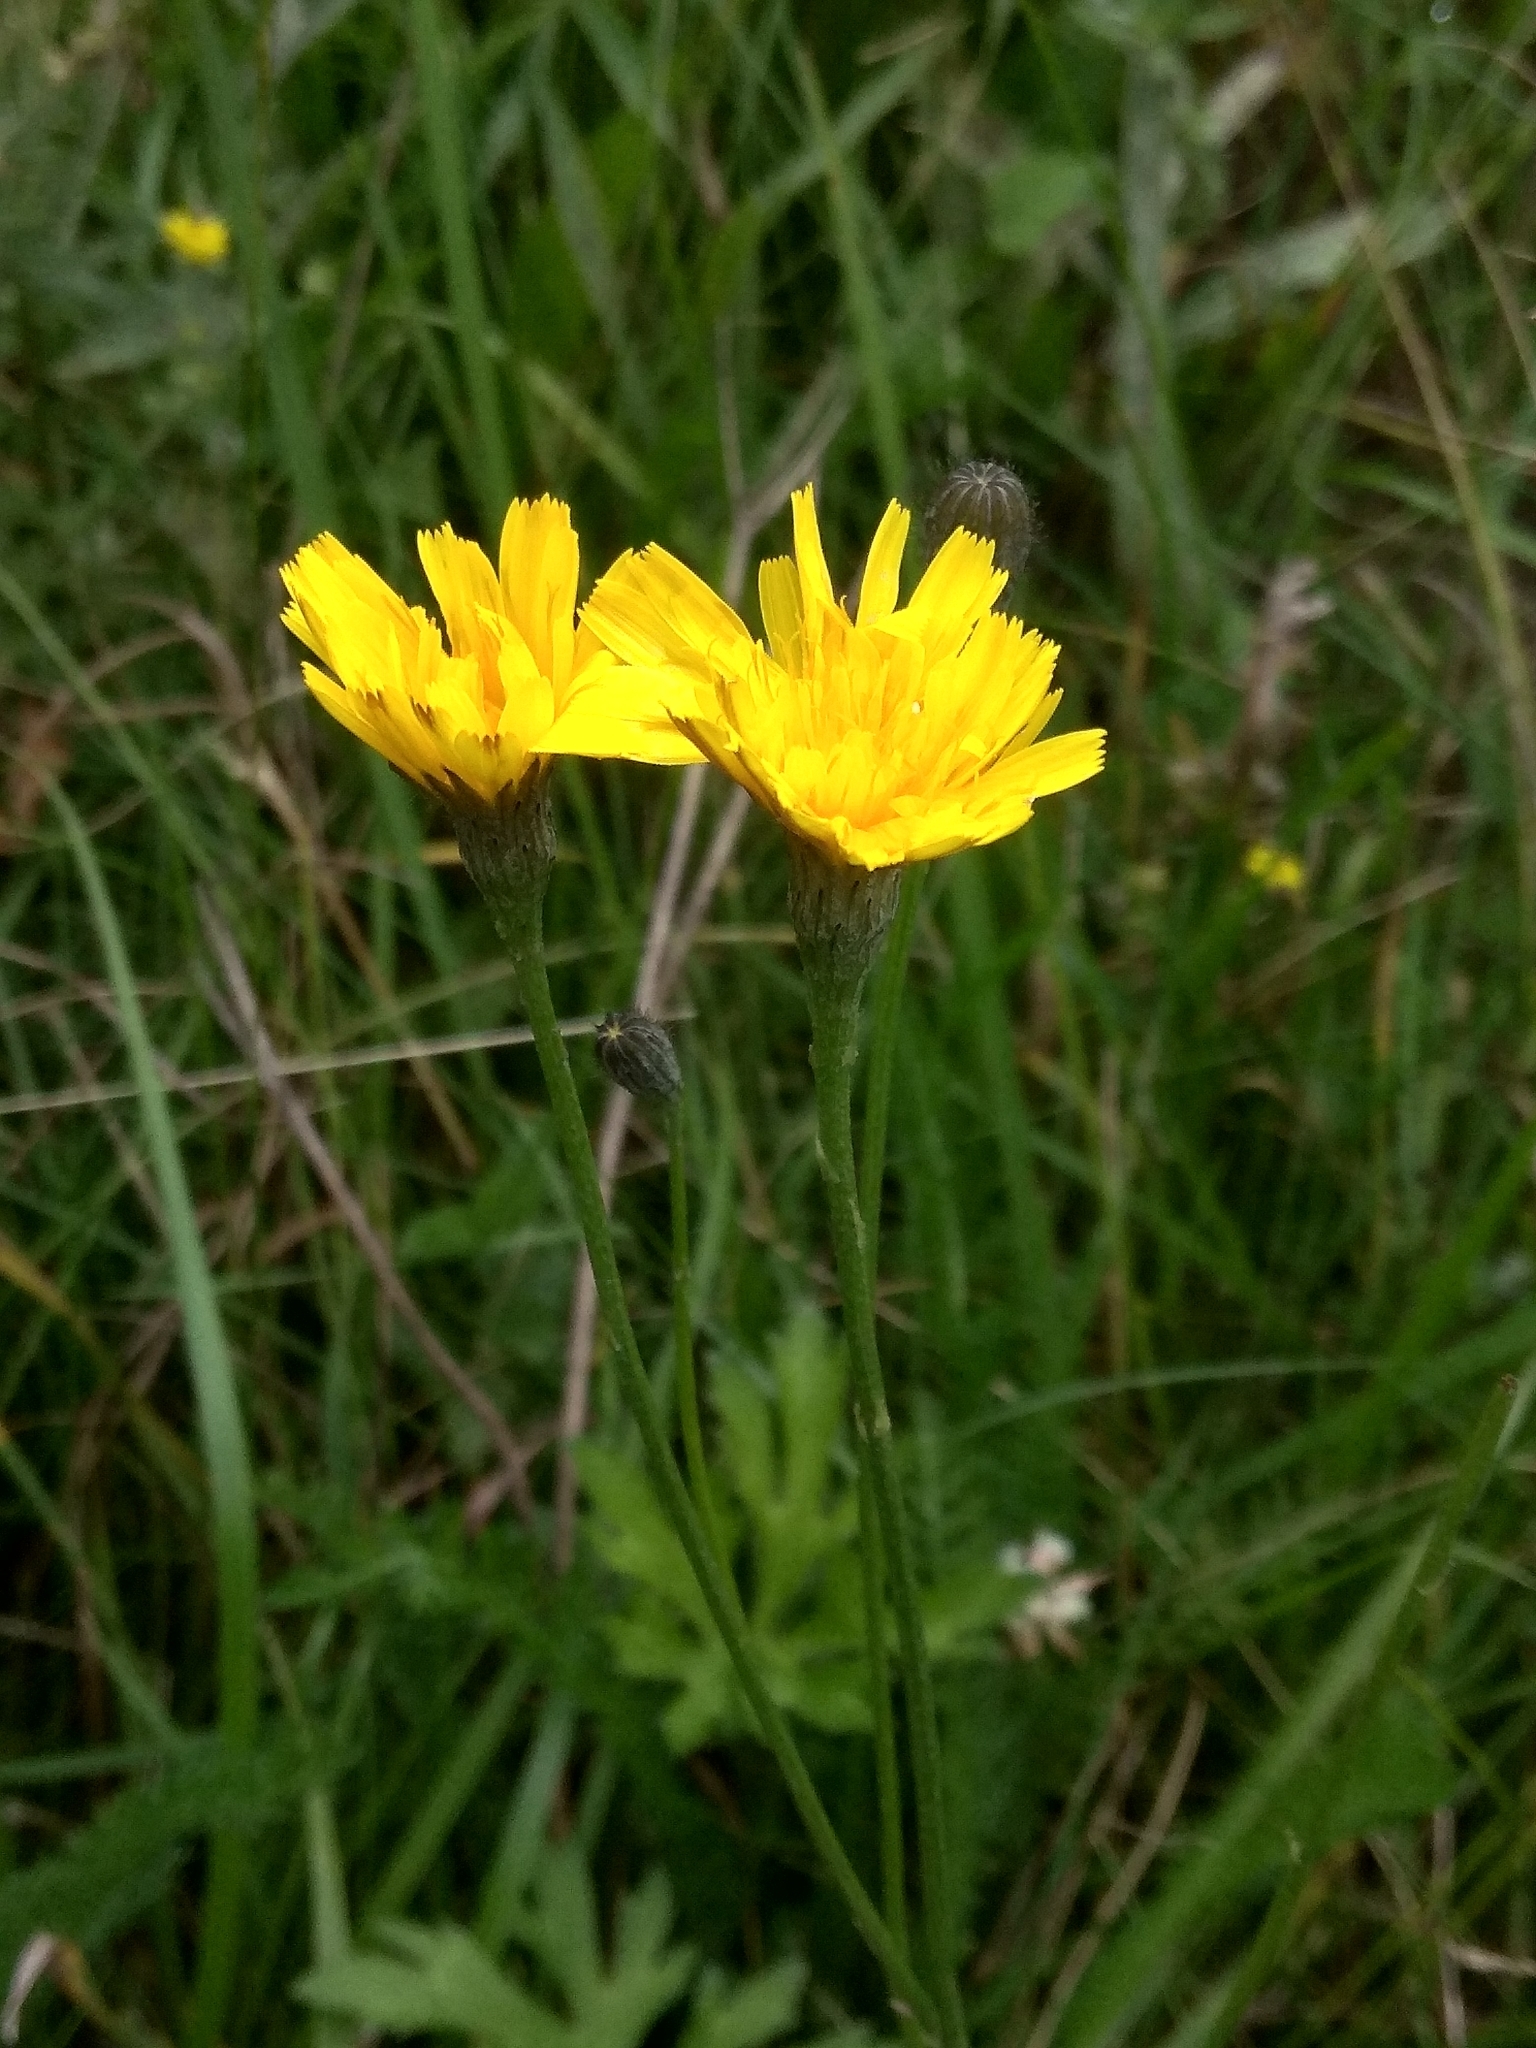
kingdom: Plantae
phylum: Tracheophyta
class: Magnoliopsida
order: Asterales
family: Asteraceae
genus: Scorzoneroides
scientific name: Scorzoneroides autumnalis
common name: Autumn hawkbit
